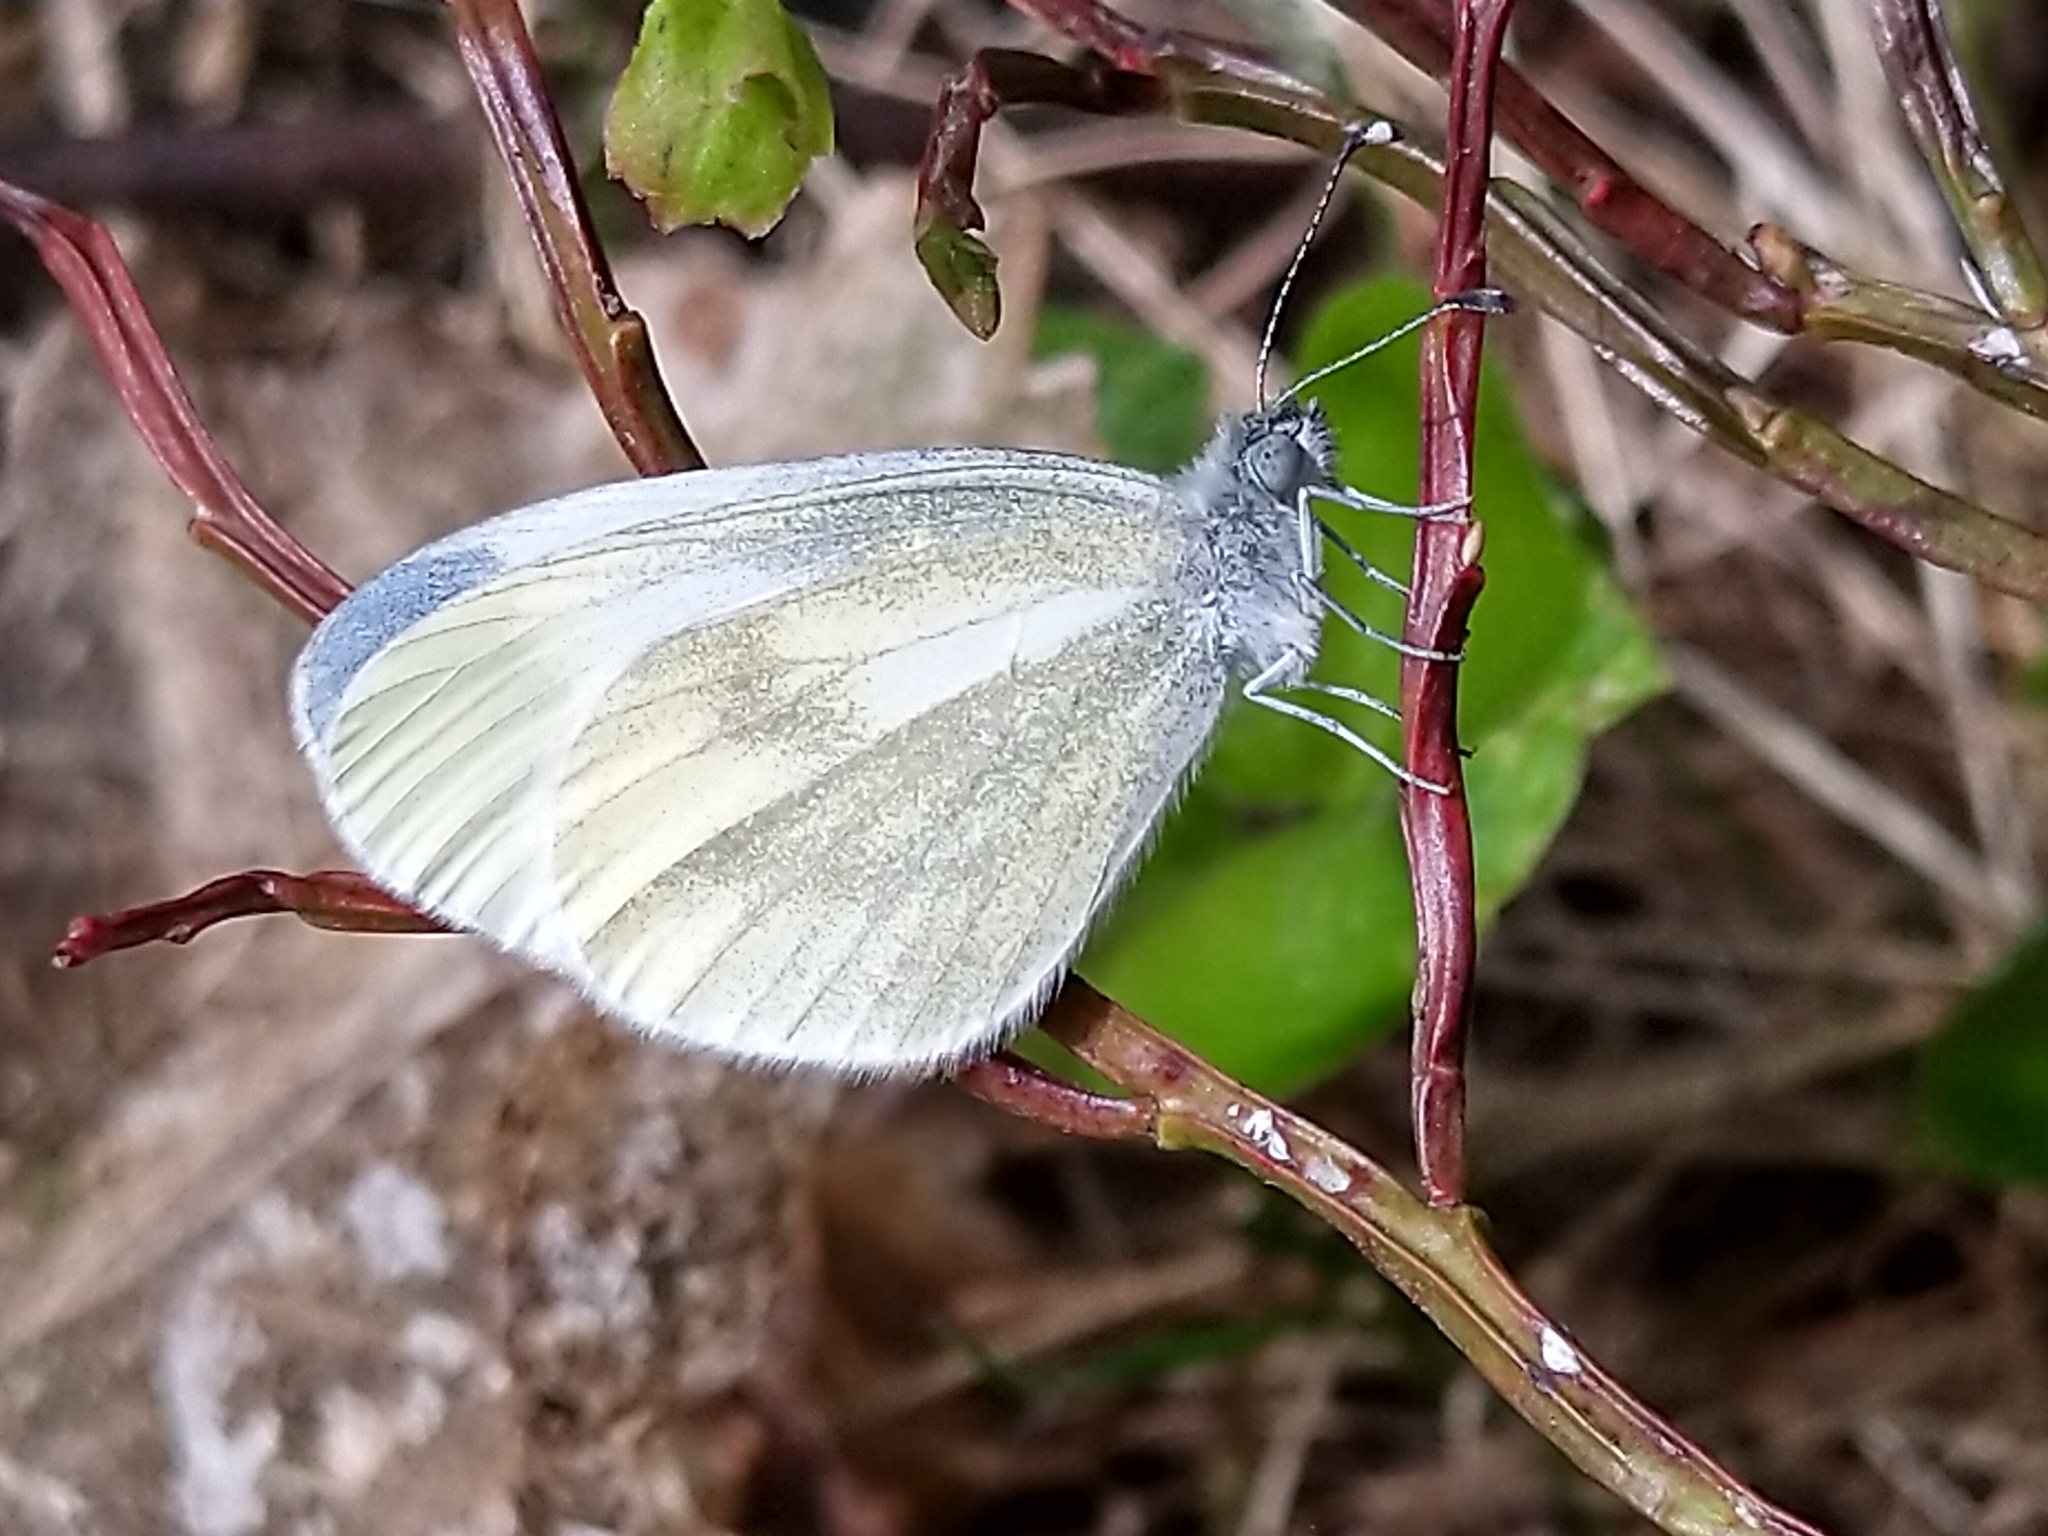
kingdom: Animalia
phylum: Arthropoda
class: Insecta
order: Lepidoptera
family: Pieridae
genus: Leptidea
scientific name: Leptidea sinapis
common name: Wood white
